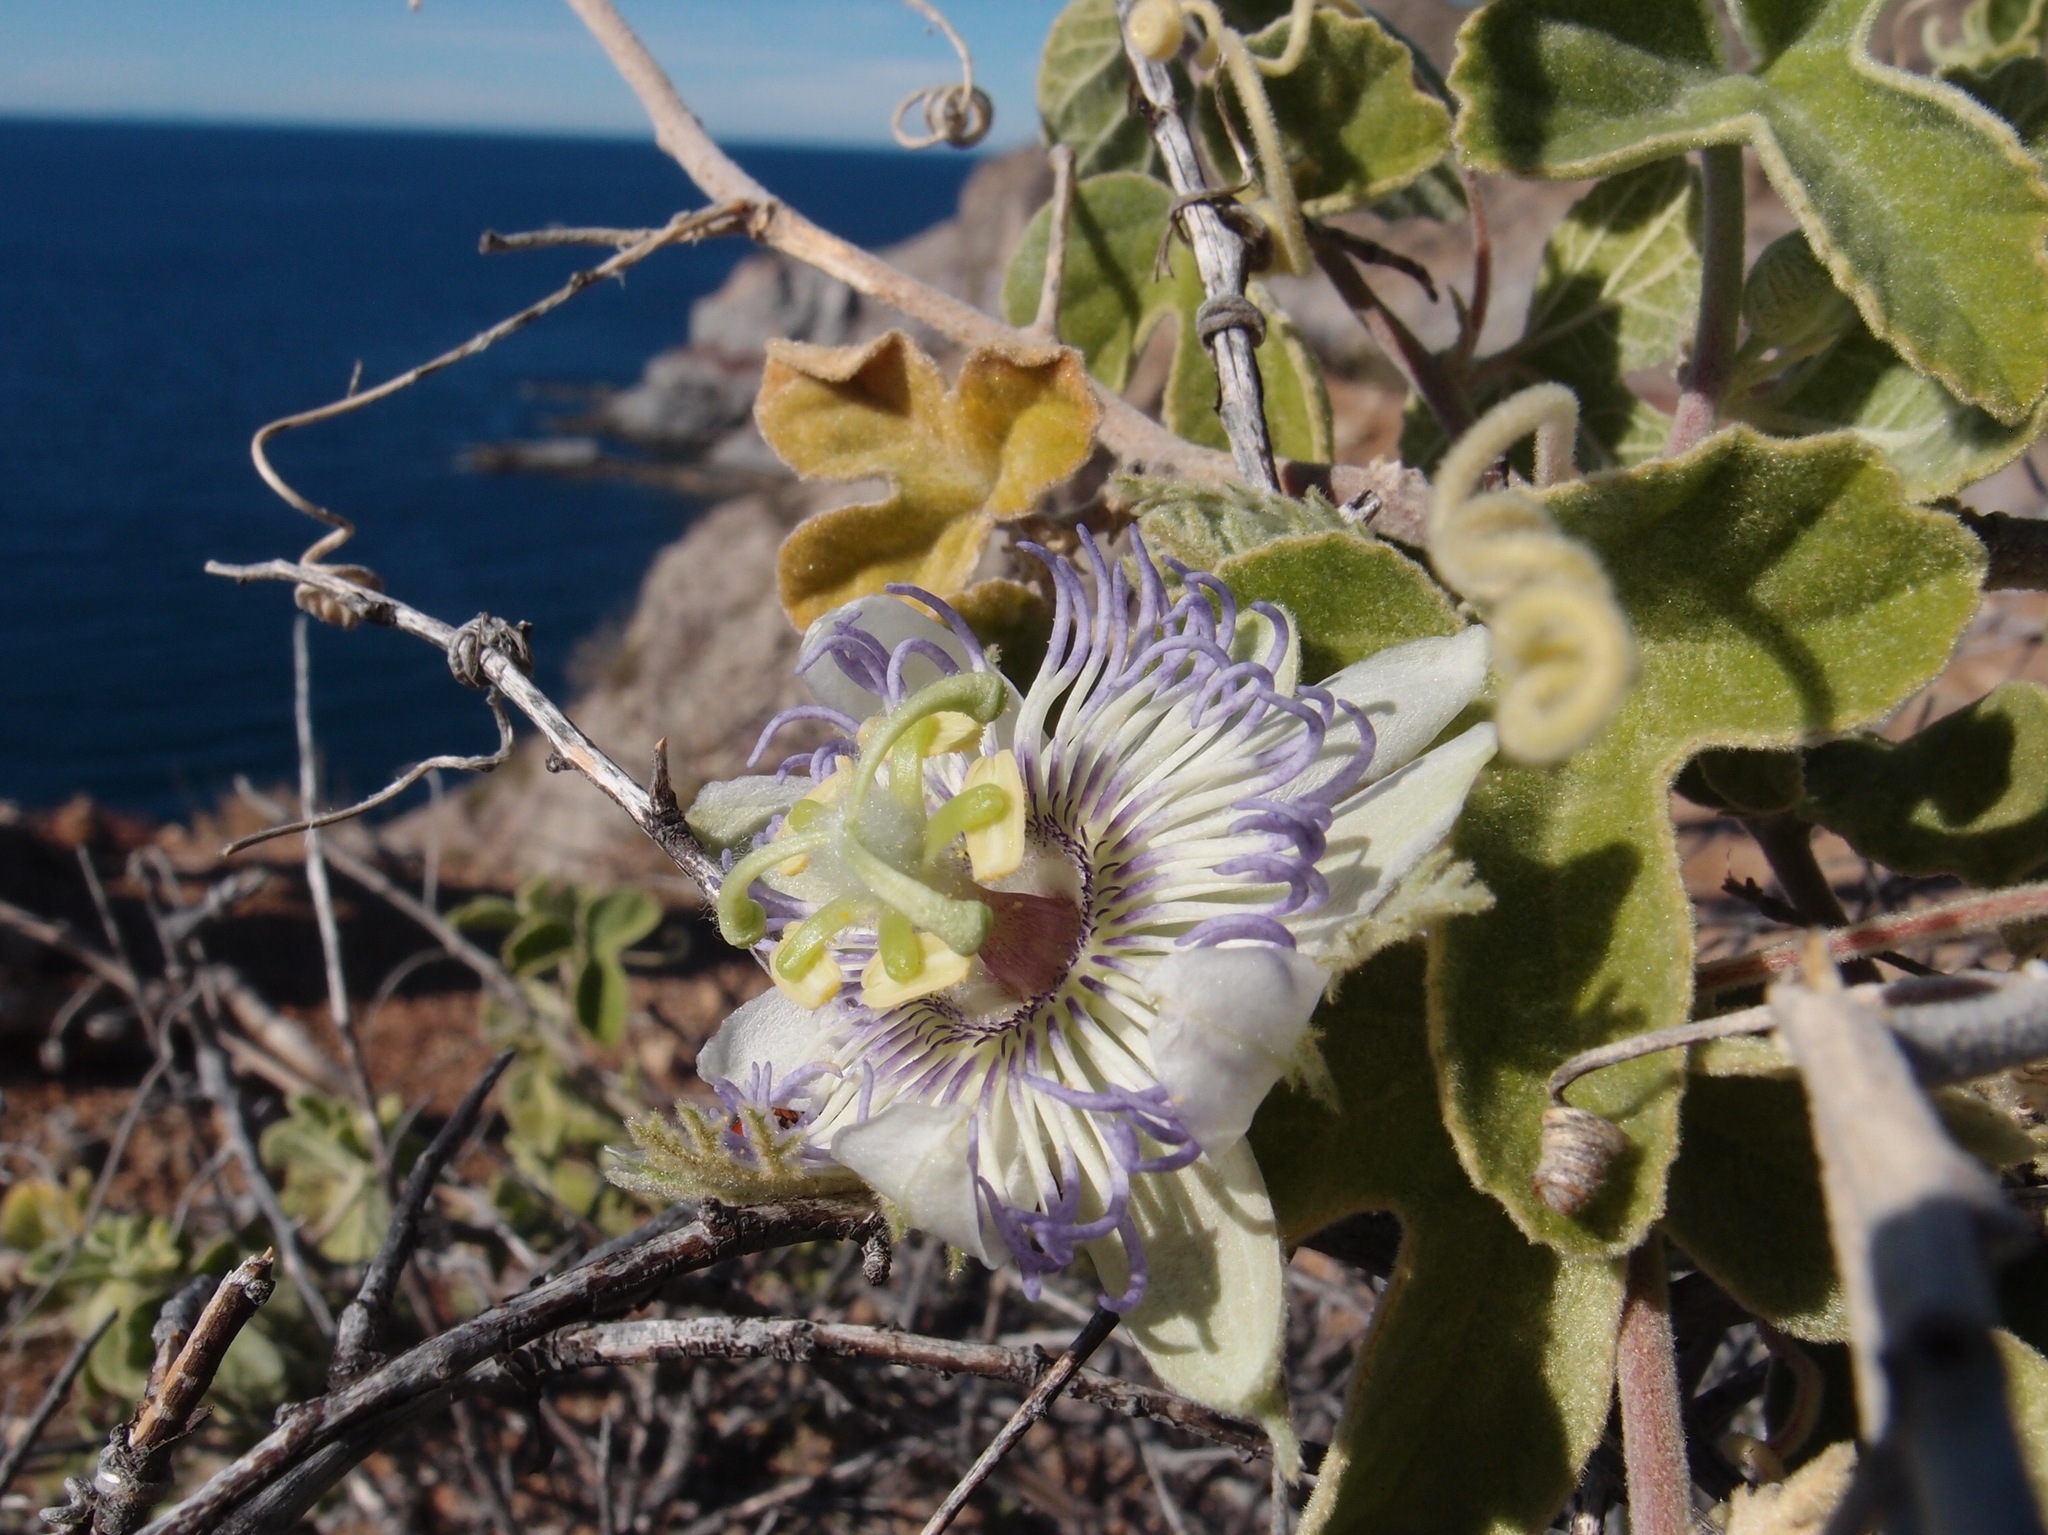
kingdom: Plantae
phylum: Tracheophyta
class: Magnoliopsida
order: Malpighiales
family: Passifloraceae
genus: Passiflora
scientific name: Passiflora arida
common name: Desert passionflower
